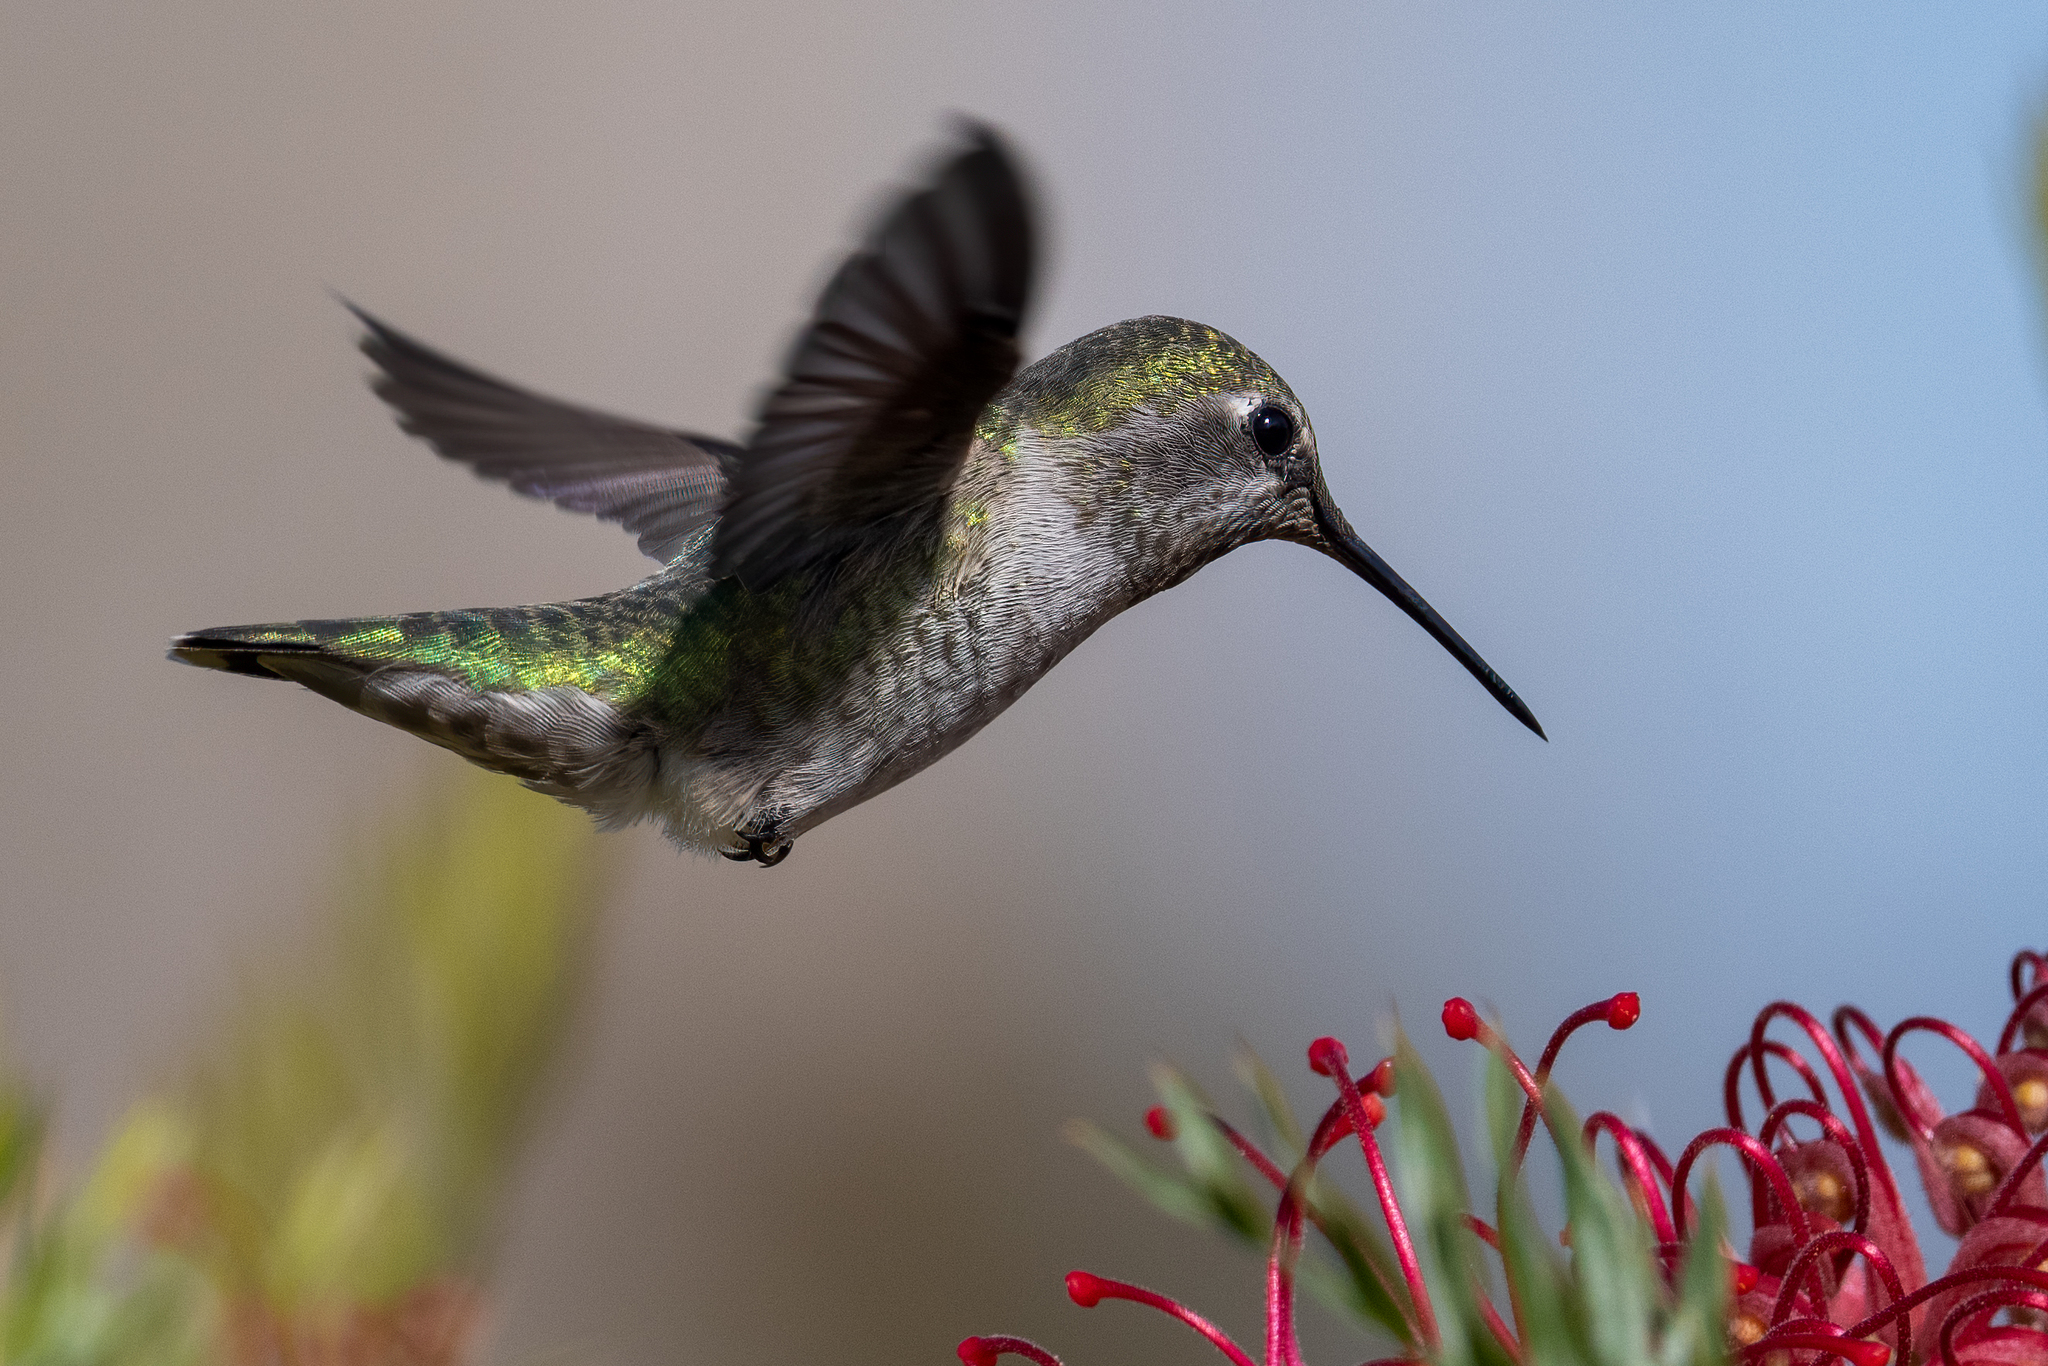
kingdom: Animalia
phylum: Chordata
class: Aves
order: Apodiformes
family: Trochilidae
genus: Calypte
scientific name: Calypte anna
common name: Anna's hummingbird
